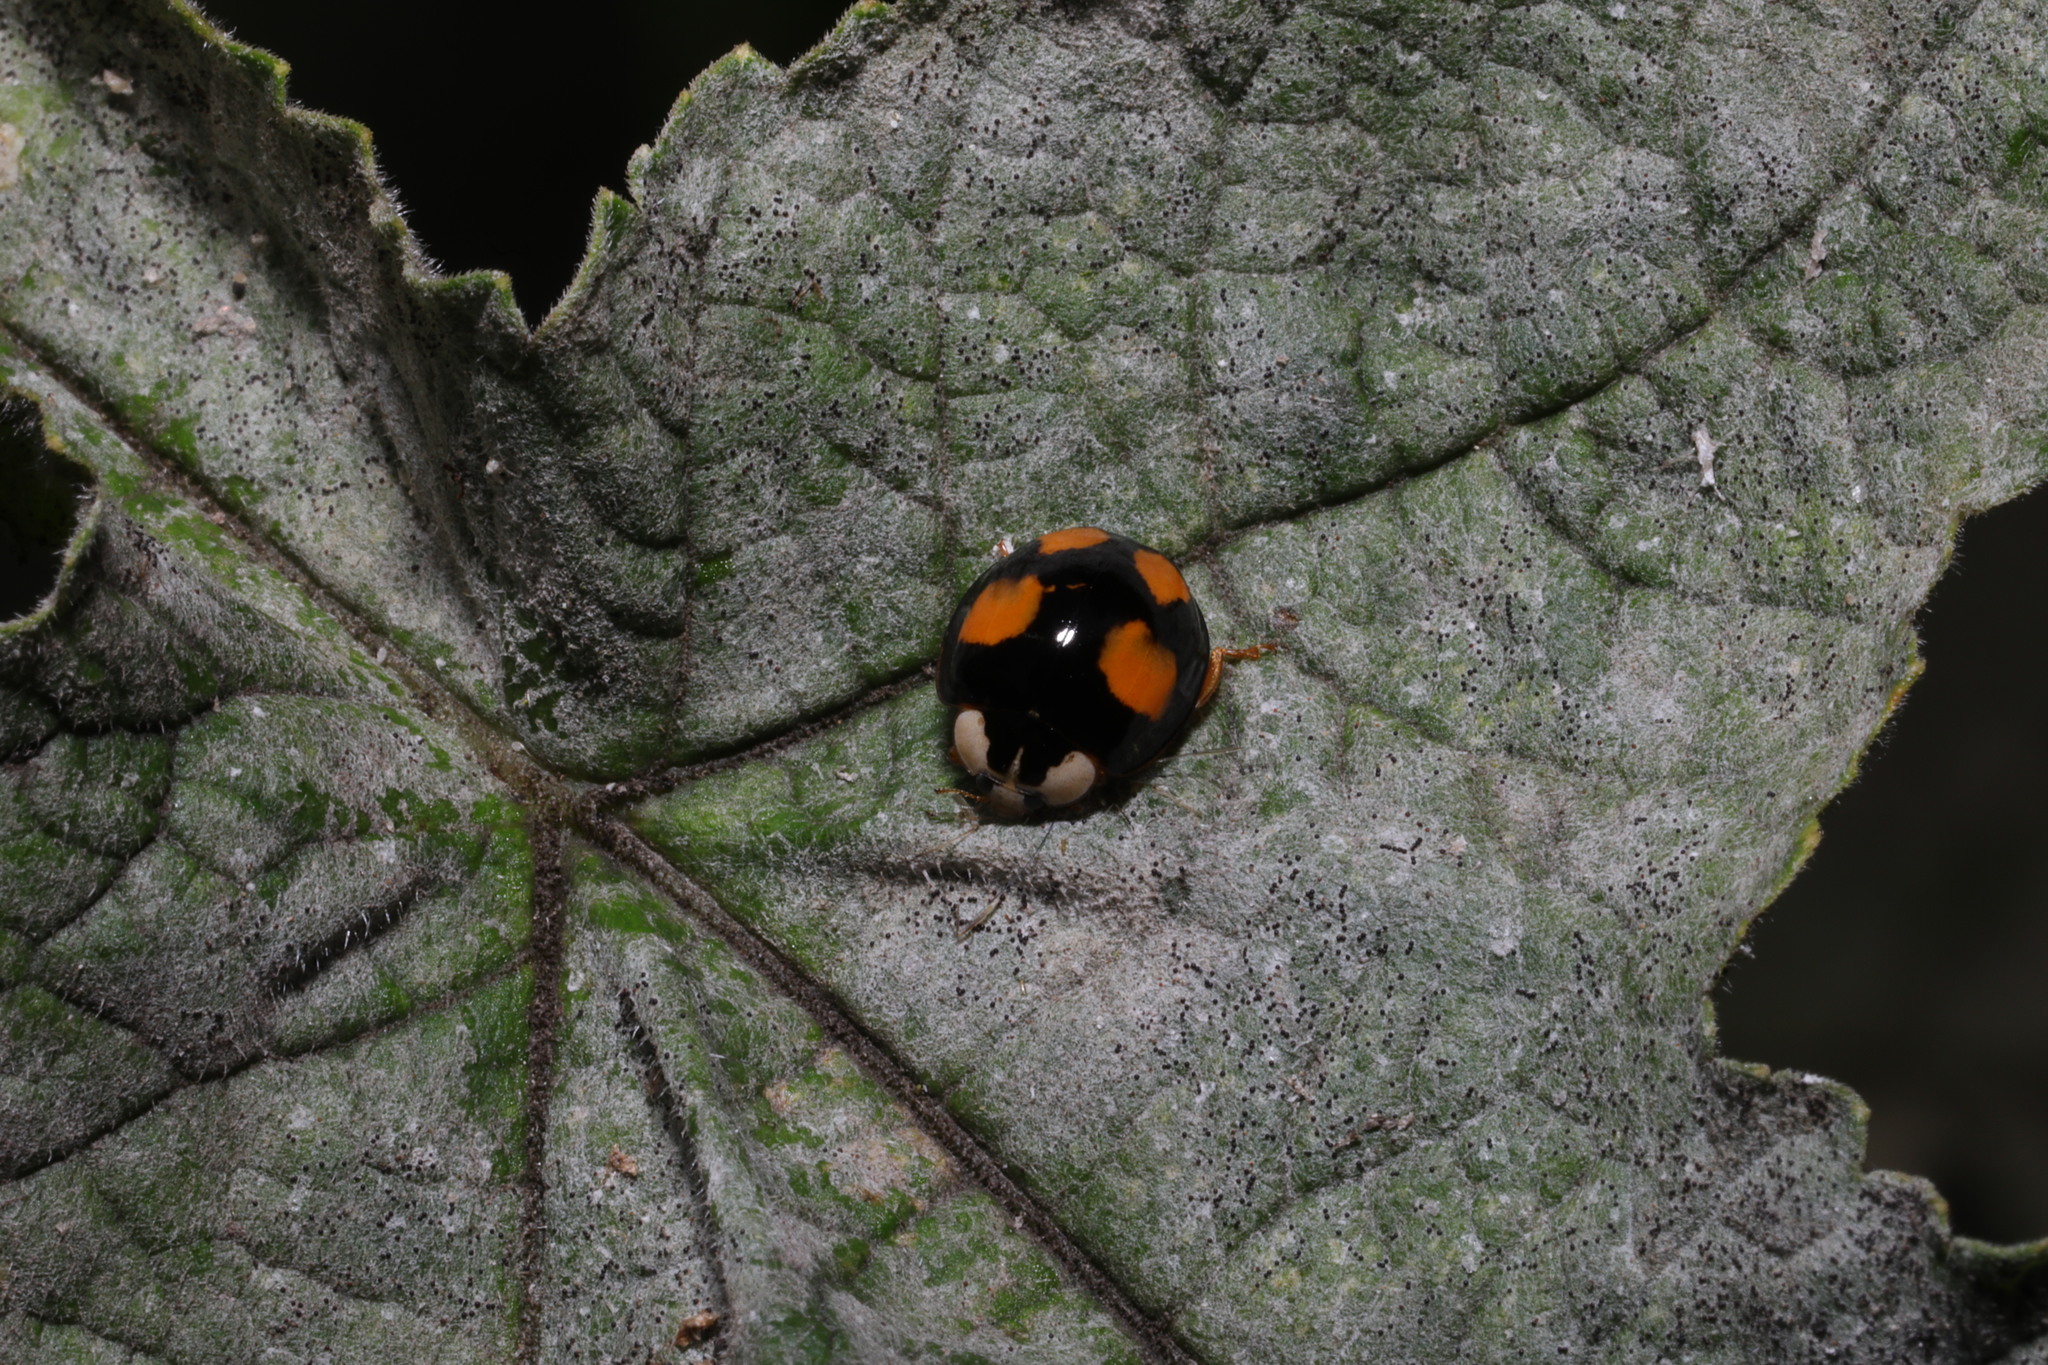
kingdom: Animalia
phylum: Arthropoda
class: Insecta
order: Coleoptera
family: Coccinellidae
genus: Harmonia
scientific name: Harmonia axyridis
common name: Harlequin ladybird
